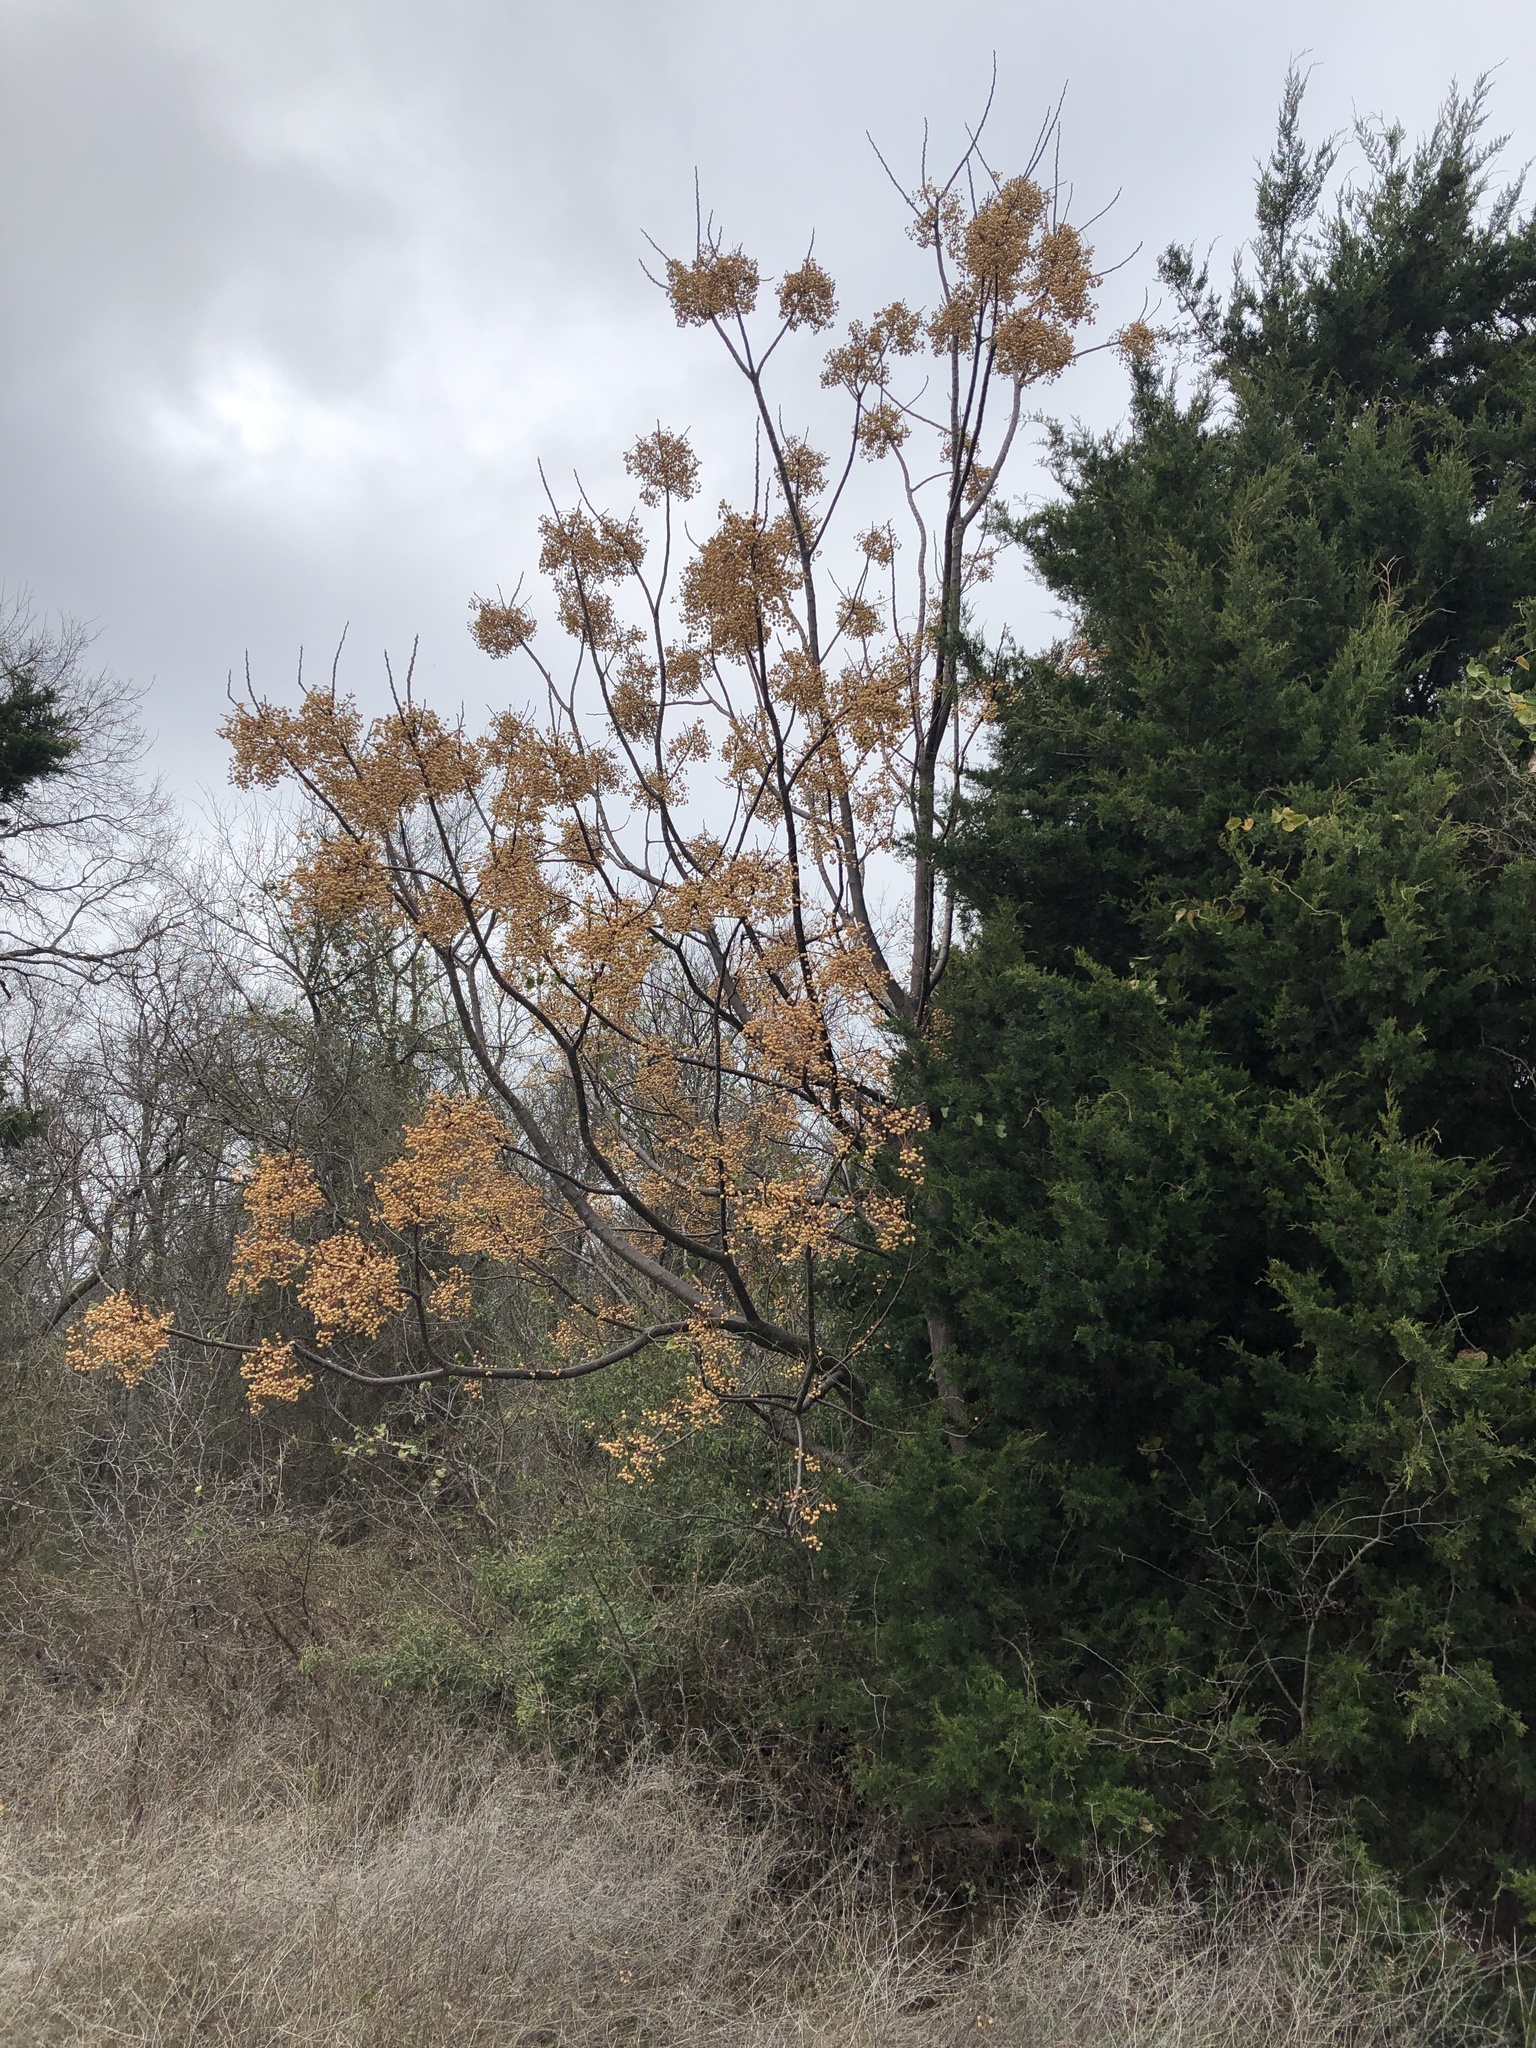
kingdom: Plantae
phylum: Tracheophyta
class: Magnoliopsida
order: Sapindales
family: Meliaceae
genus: Melia
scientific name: Melia azedarach
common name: Chinaberrytree
